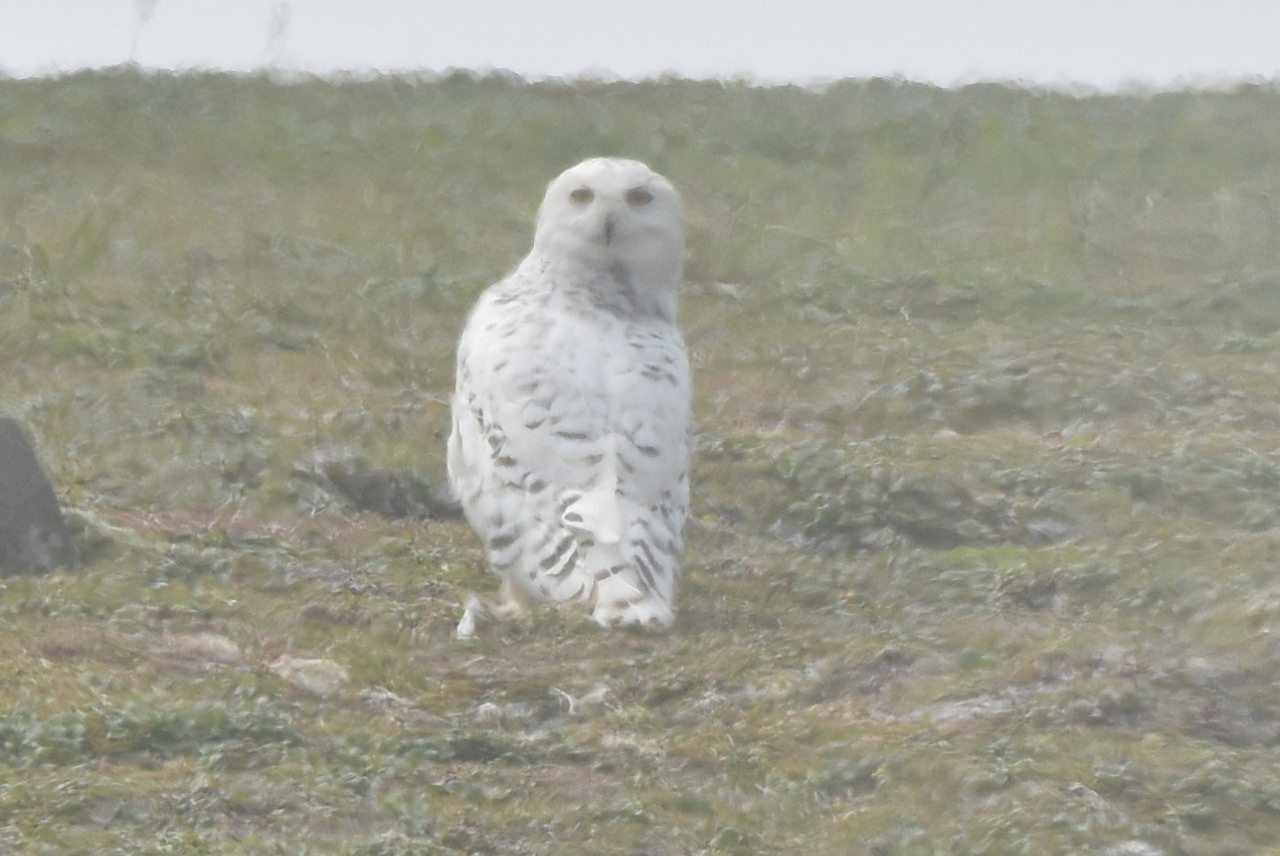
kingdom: Animalia
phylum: Chordata
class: Aves
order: Strigiformes
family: Strigidae
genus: Bubo
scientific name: Bubo scandiacus
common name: Snowy owl
